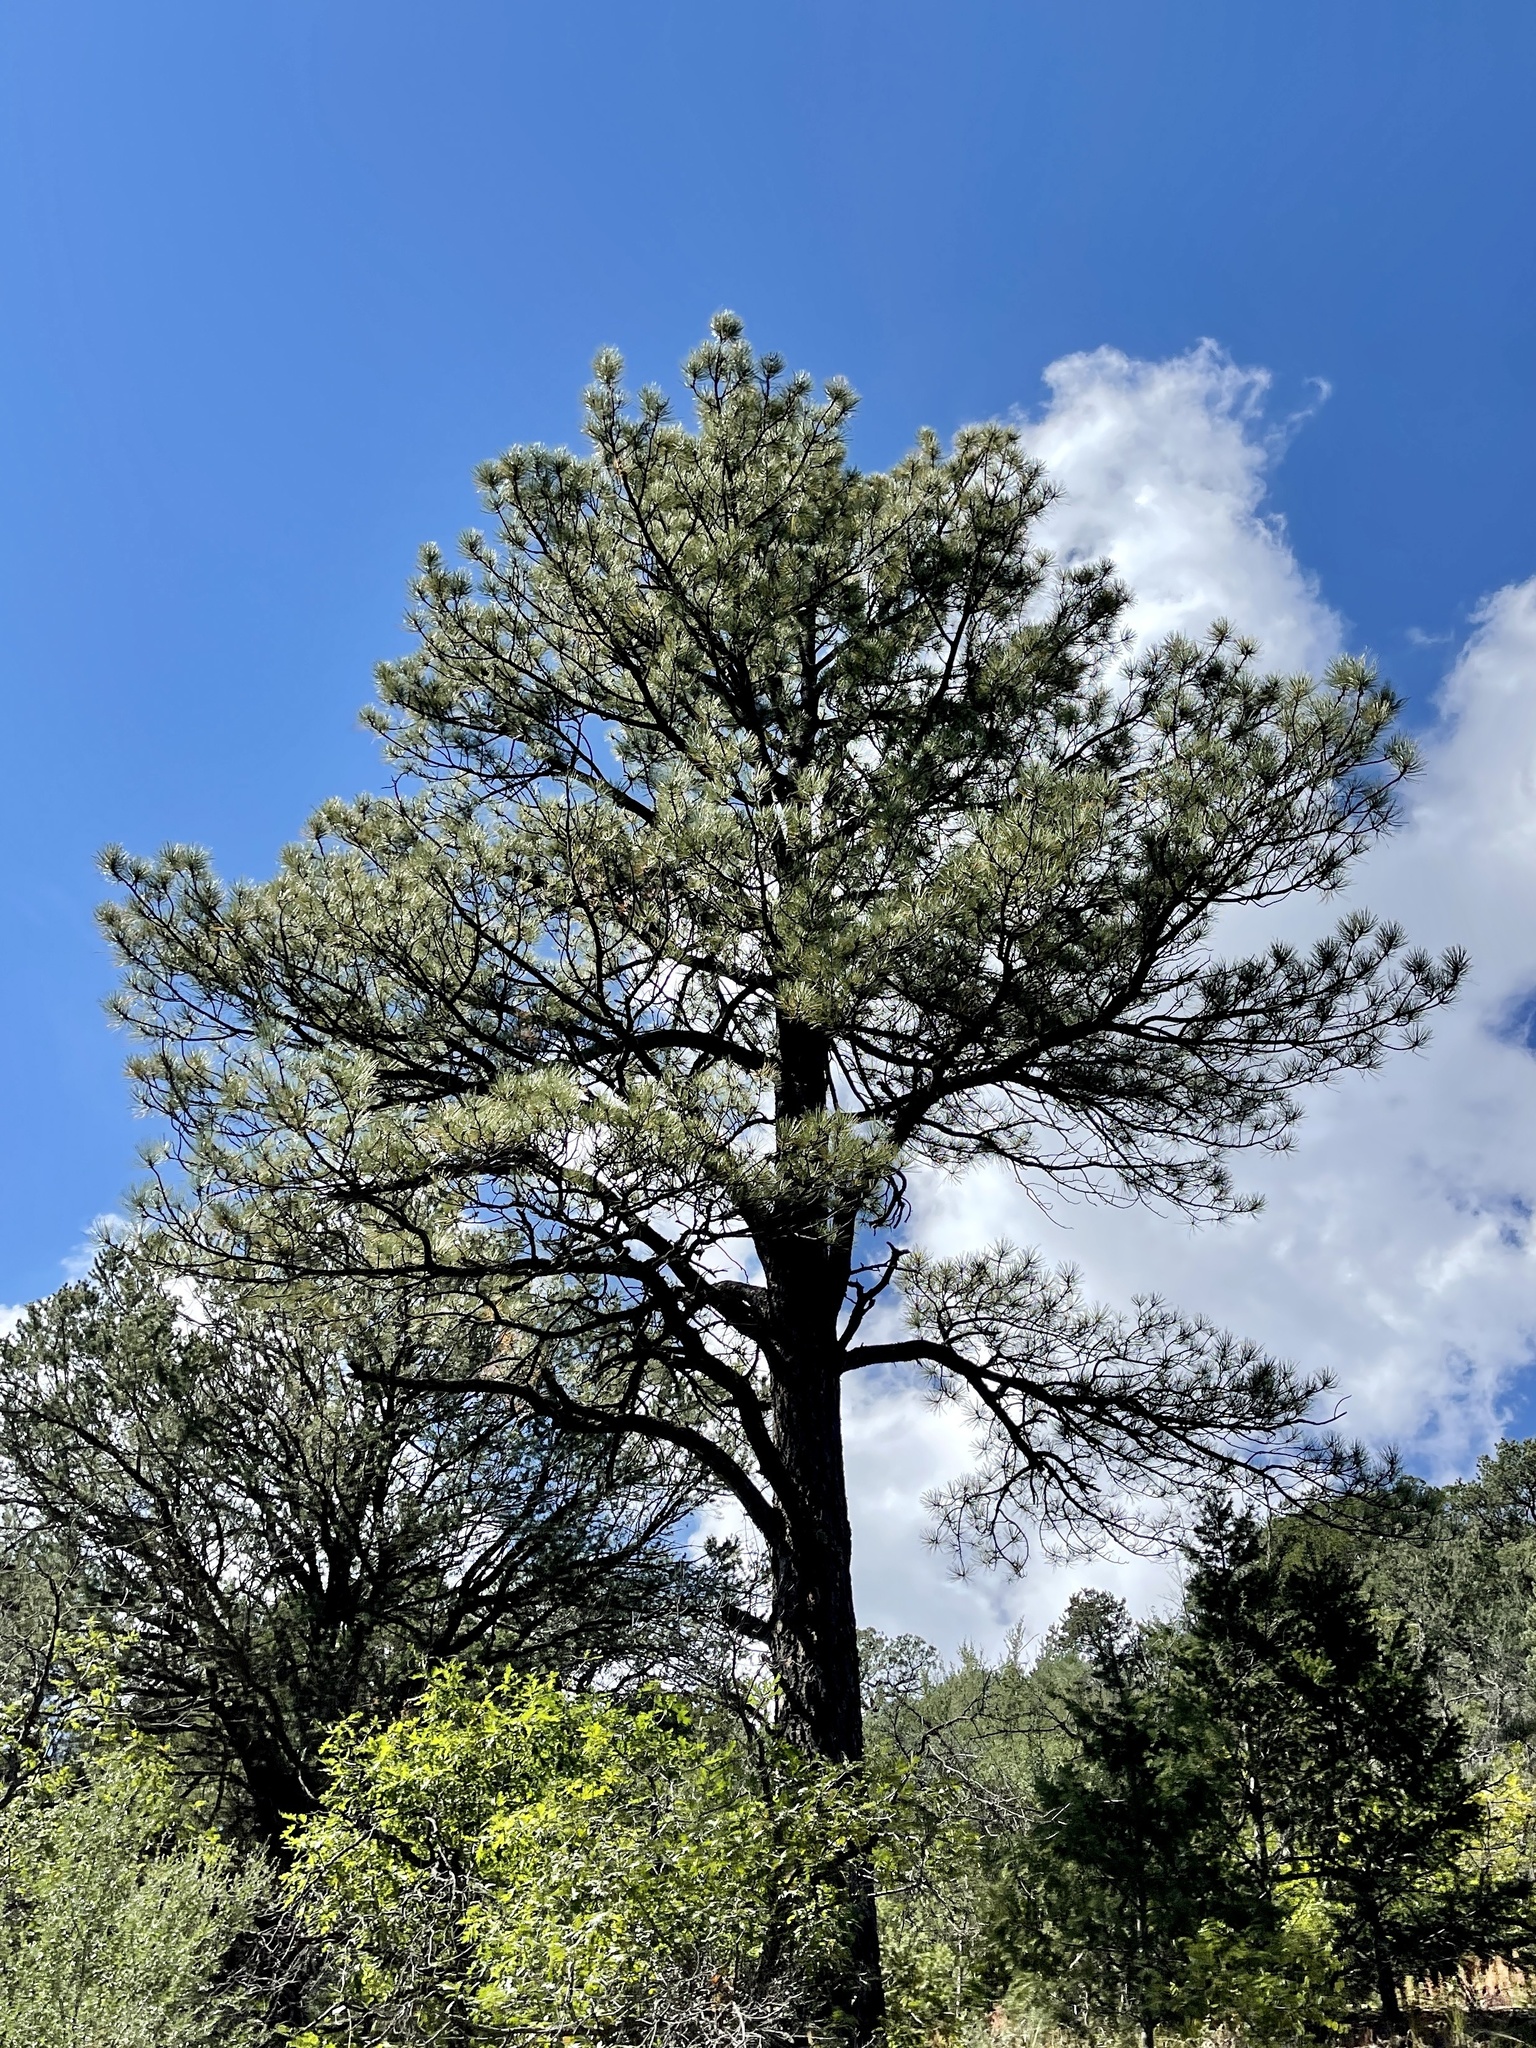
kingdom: Plantae
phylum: Tracheophyta
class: Pinopsida
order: Pinales
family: Pinaceae
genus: Pinus
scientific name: Pinus ponderosa
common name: Western yellow-pine
